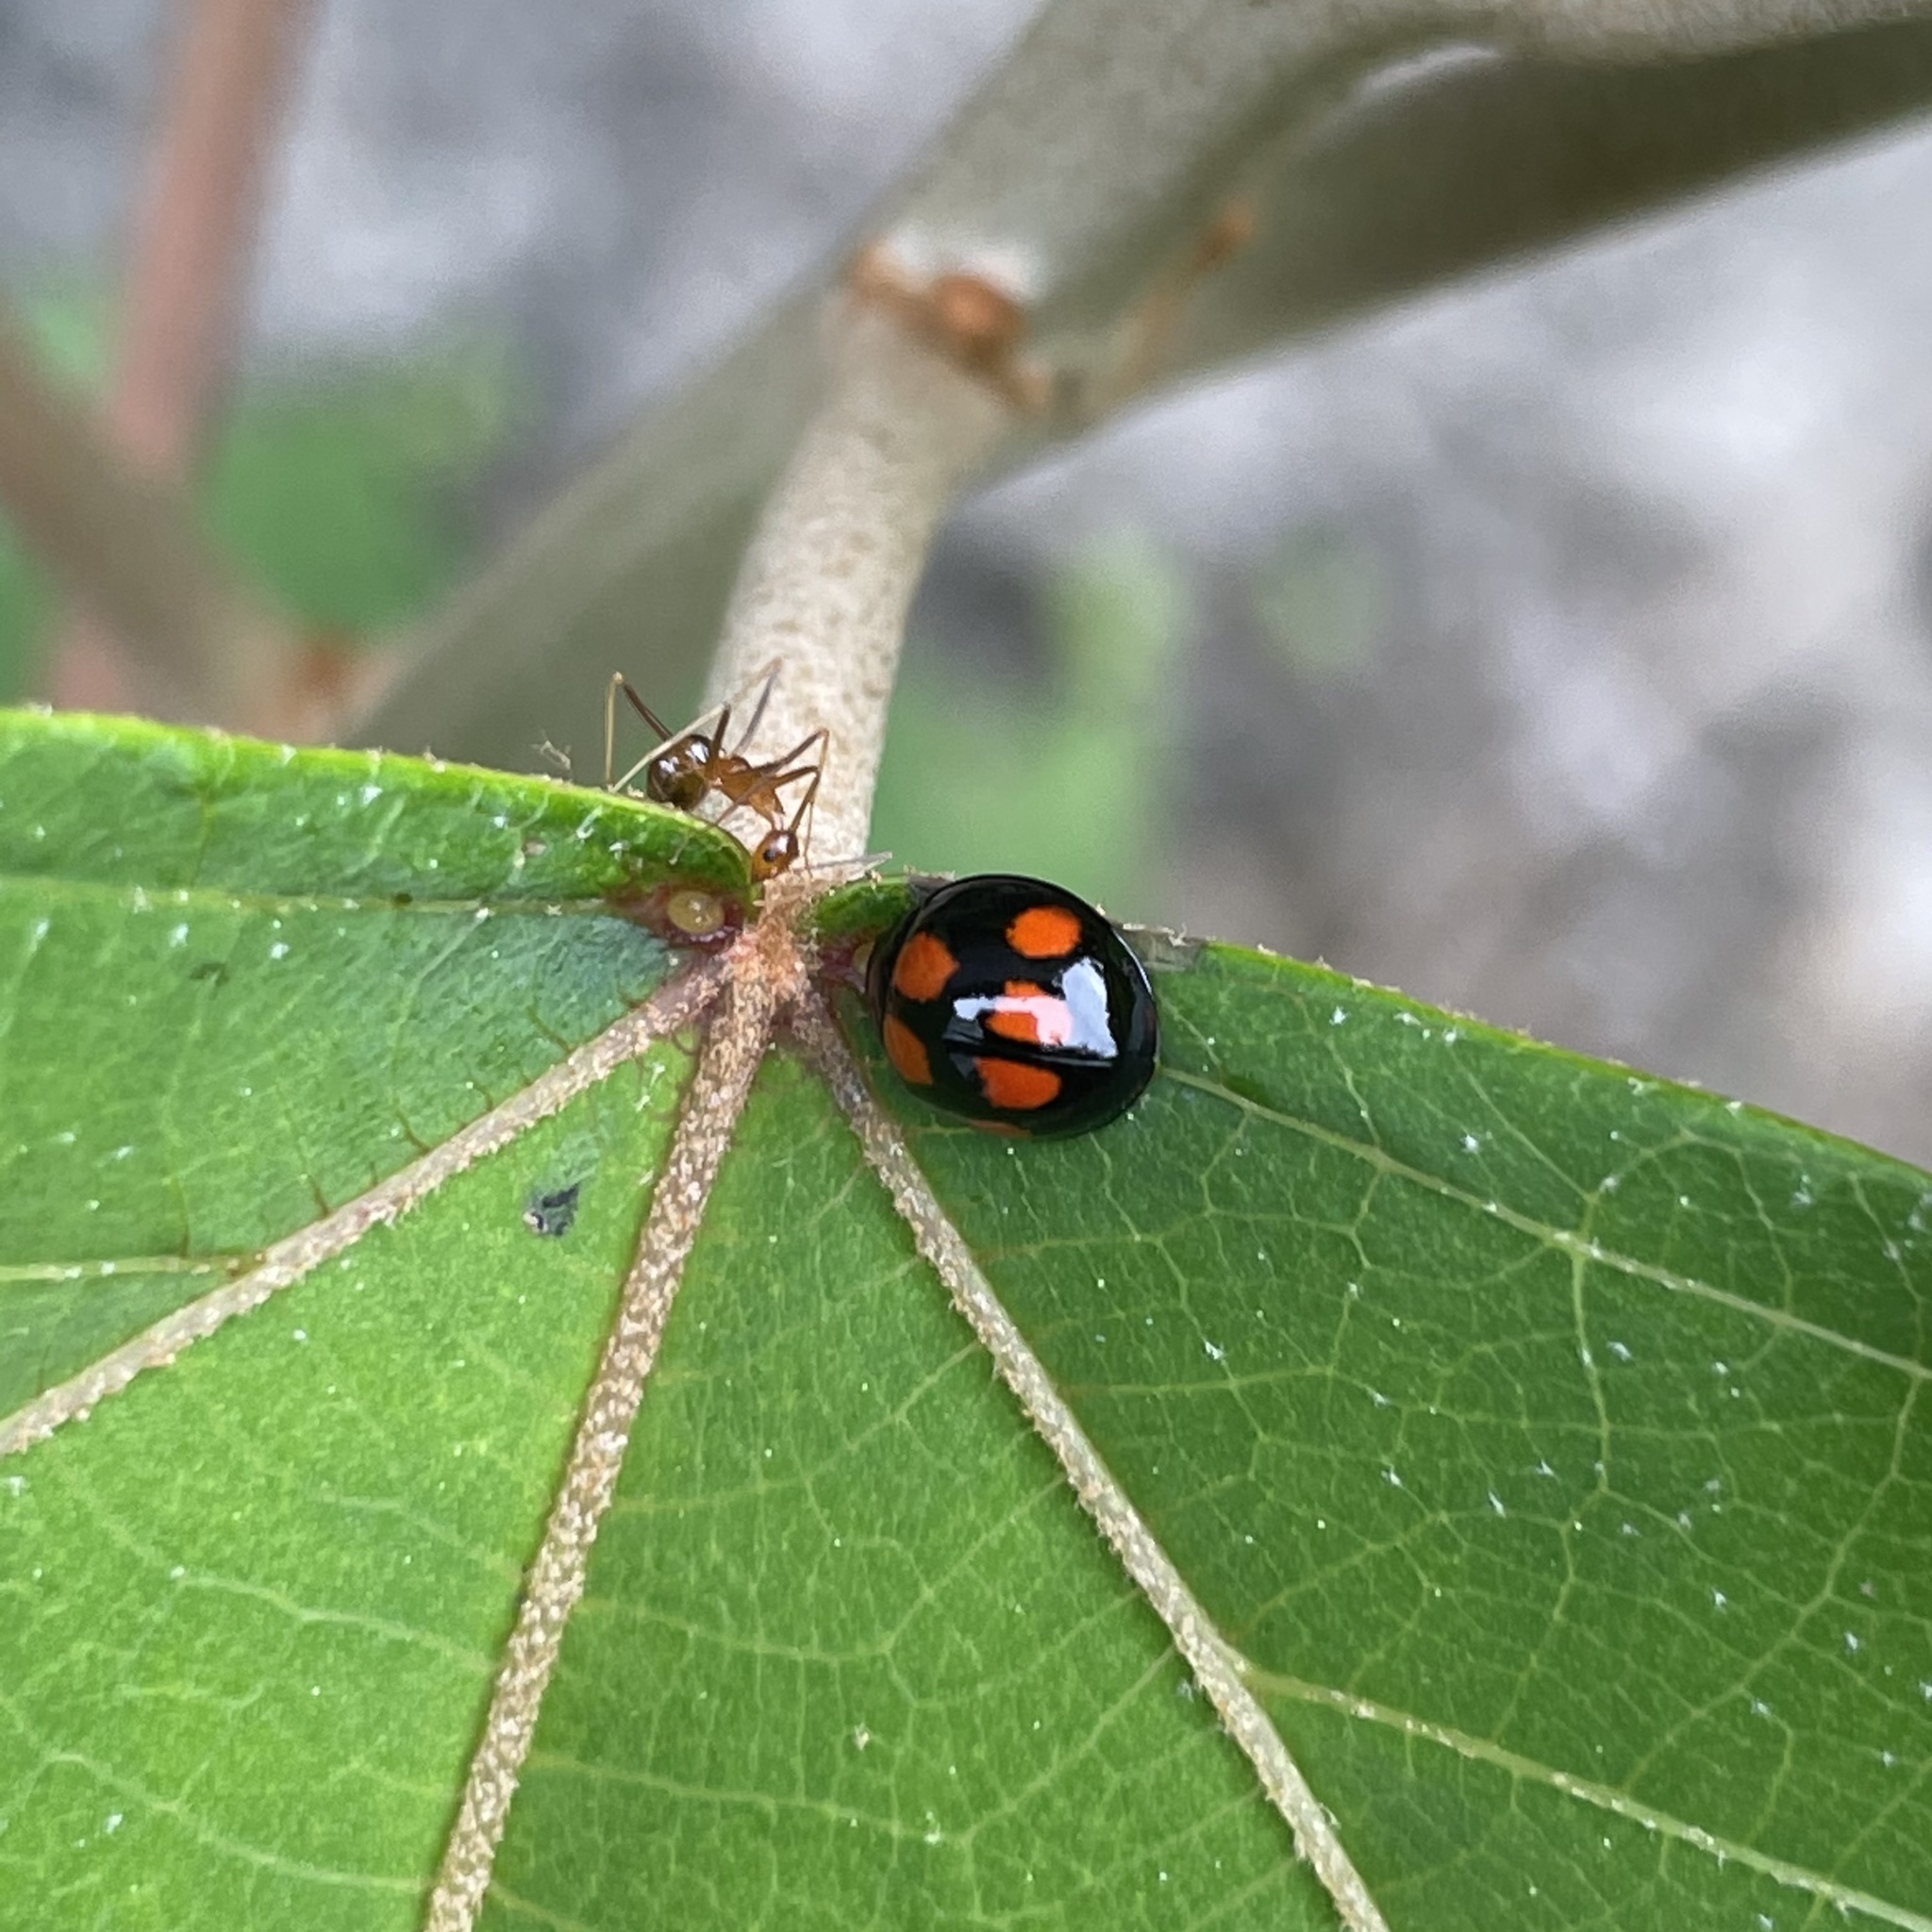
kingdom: Animalia
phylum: Arthropoda
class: Insecta
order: Hymenoptera
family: Formicidae
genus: Anoplolepis
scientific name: Anoplolepis gracilipes
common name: Ant
